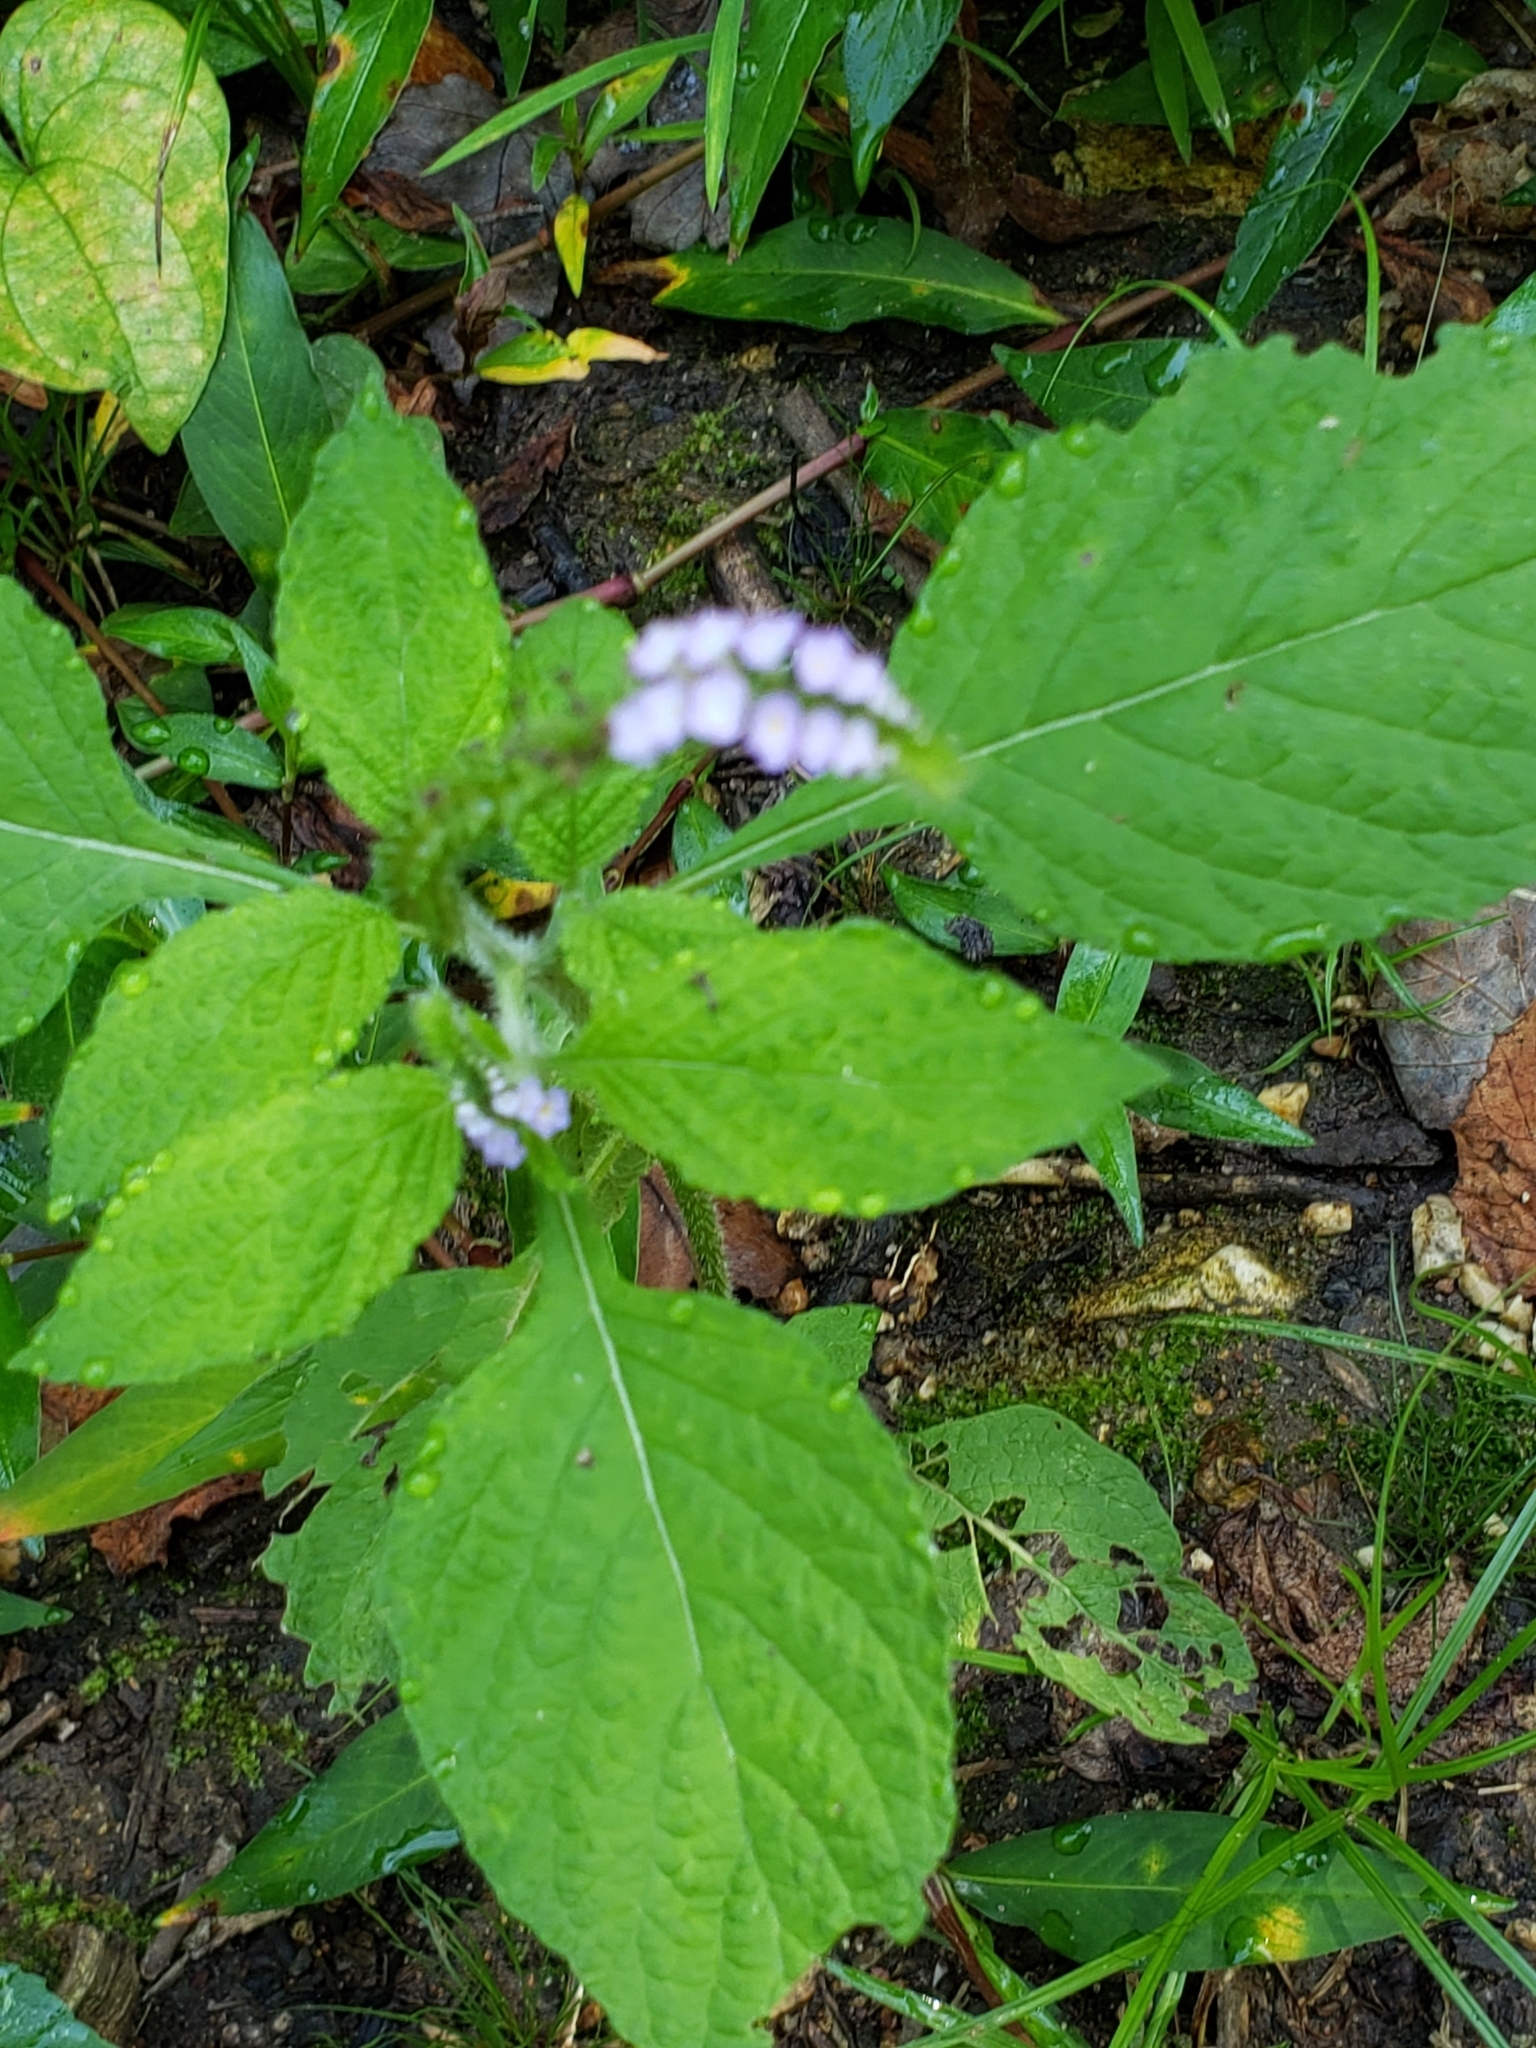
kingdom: Plantae
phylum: Tracheophyta
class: Magnoliopsida
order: Boraginales
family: Heliotropiaceae
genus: Heliotropium
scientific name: Heliotropium indicum
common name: Indian heliotrope
